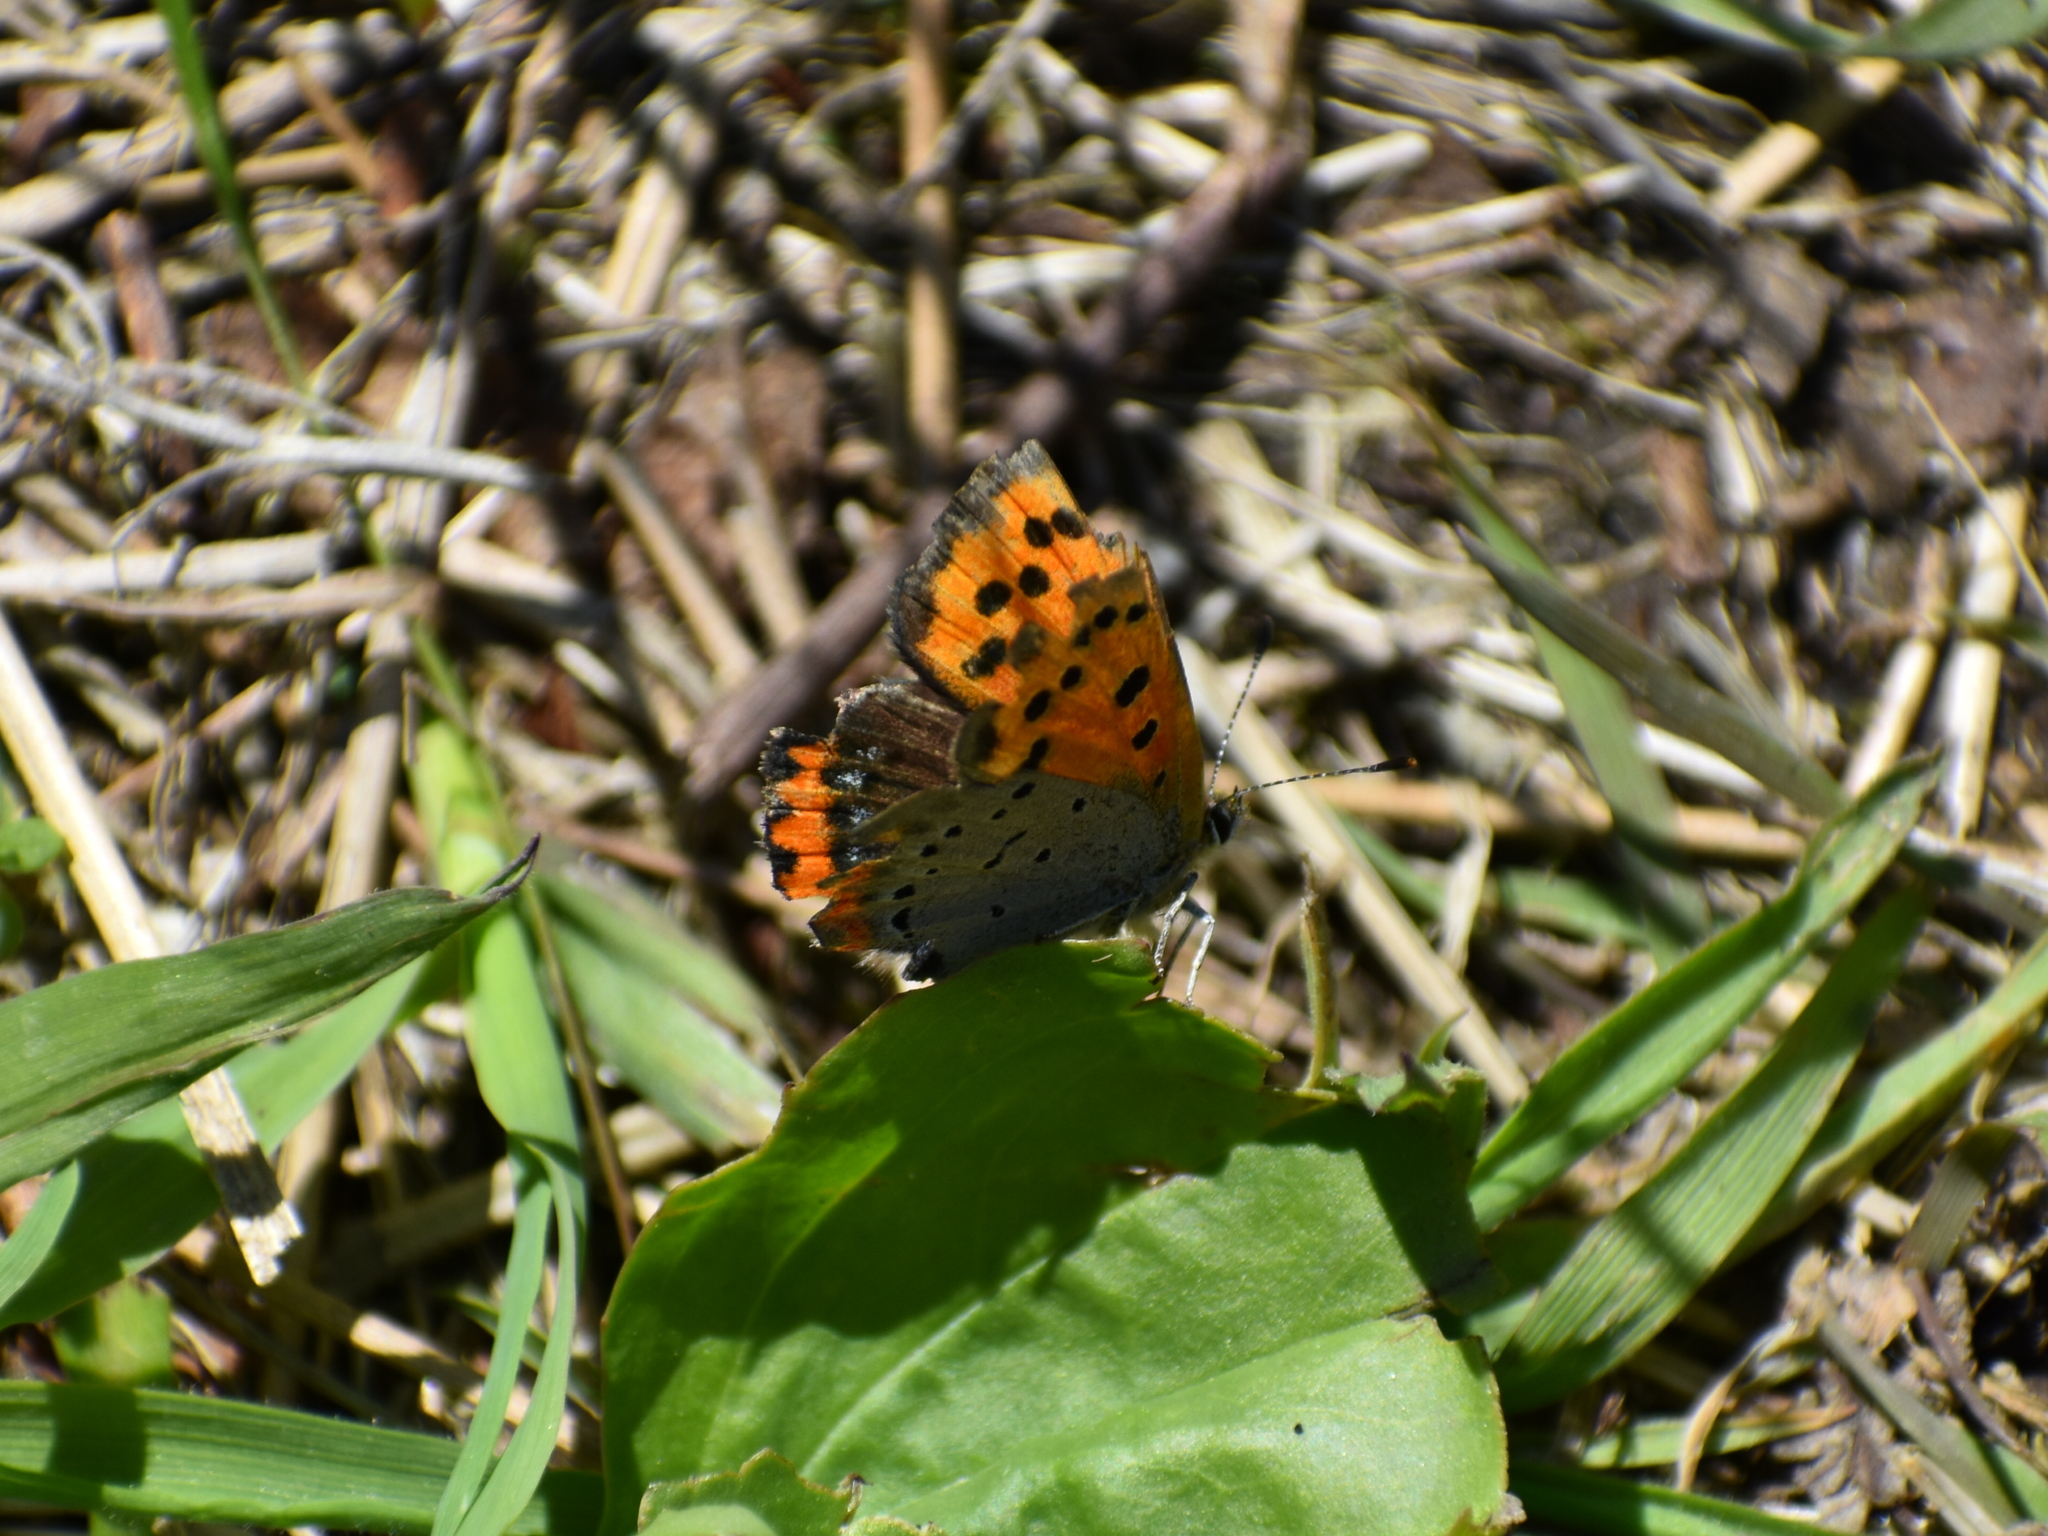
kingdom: Animalia
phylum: Arthropoda
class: Insecta
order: Lepidoptera
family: Lycaenidae
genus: Lycaena
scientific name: Lycaena hypophlaeas
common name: American copper
